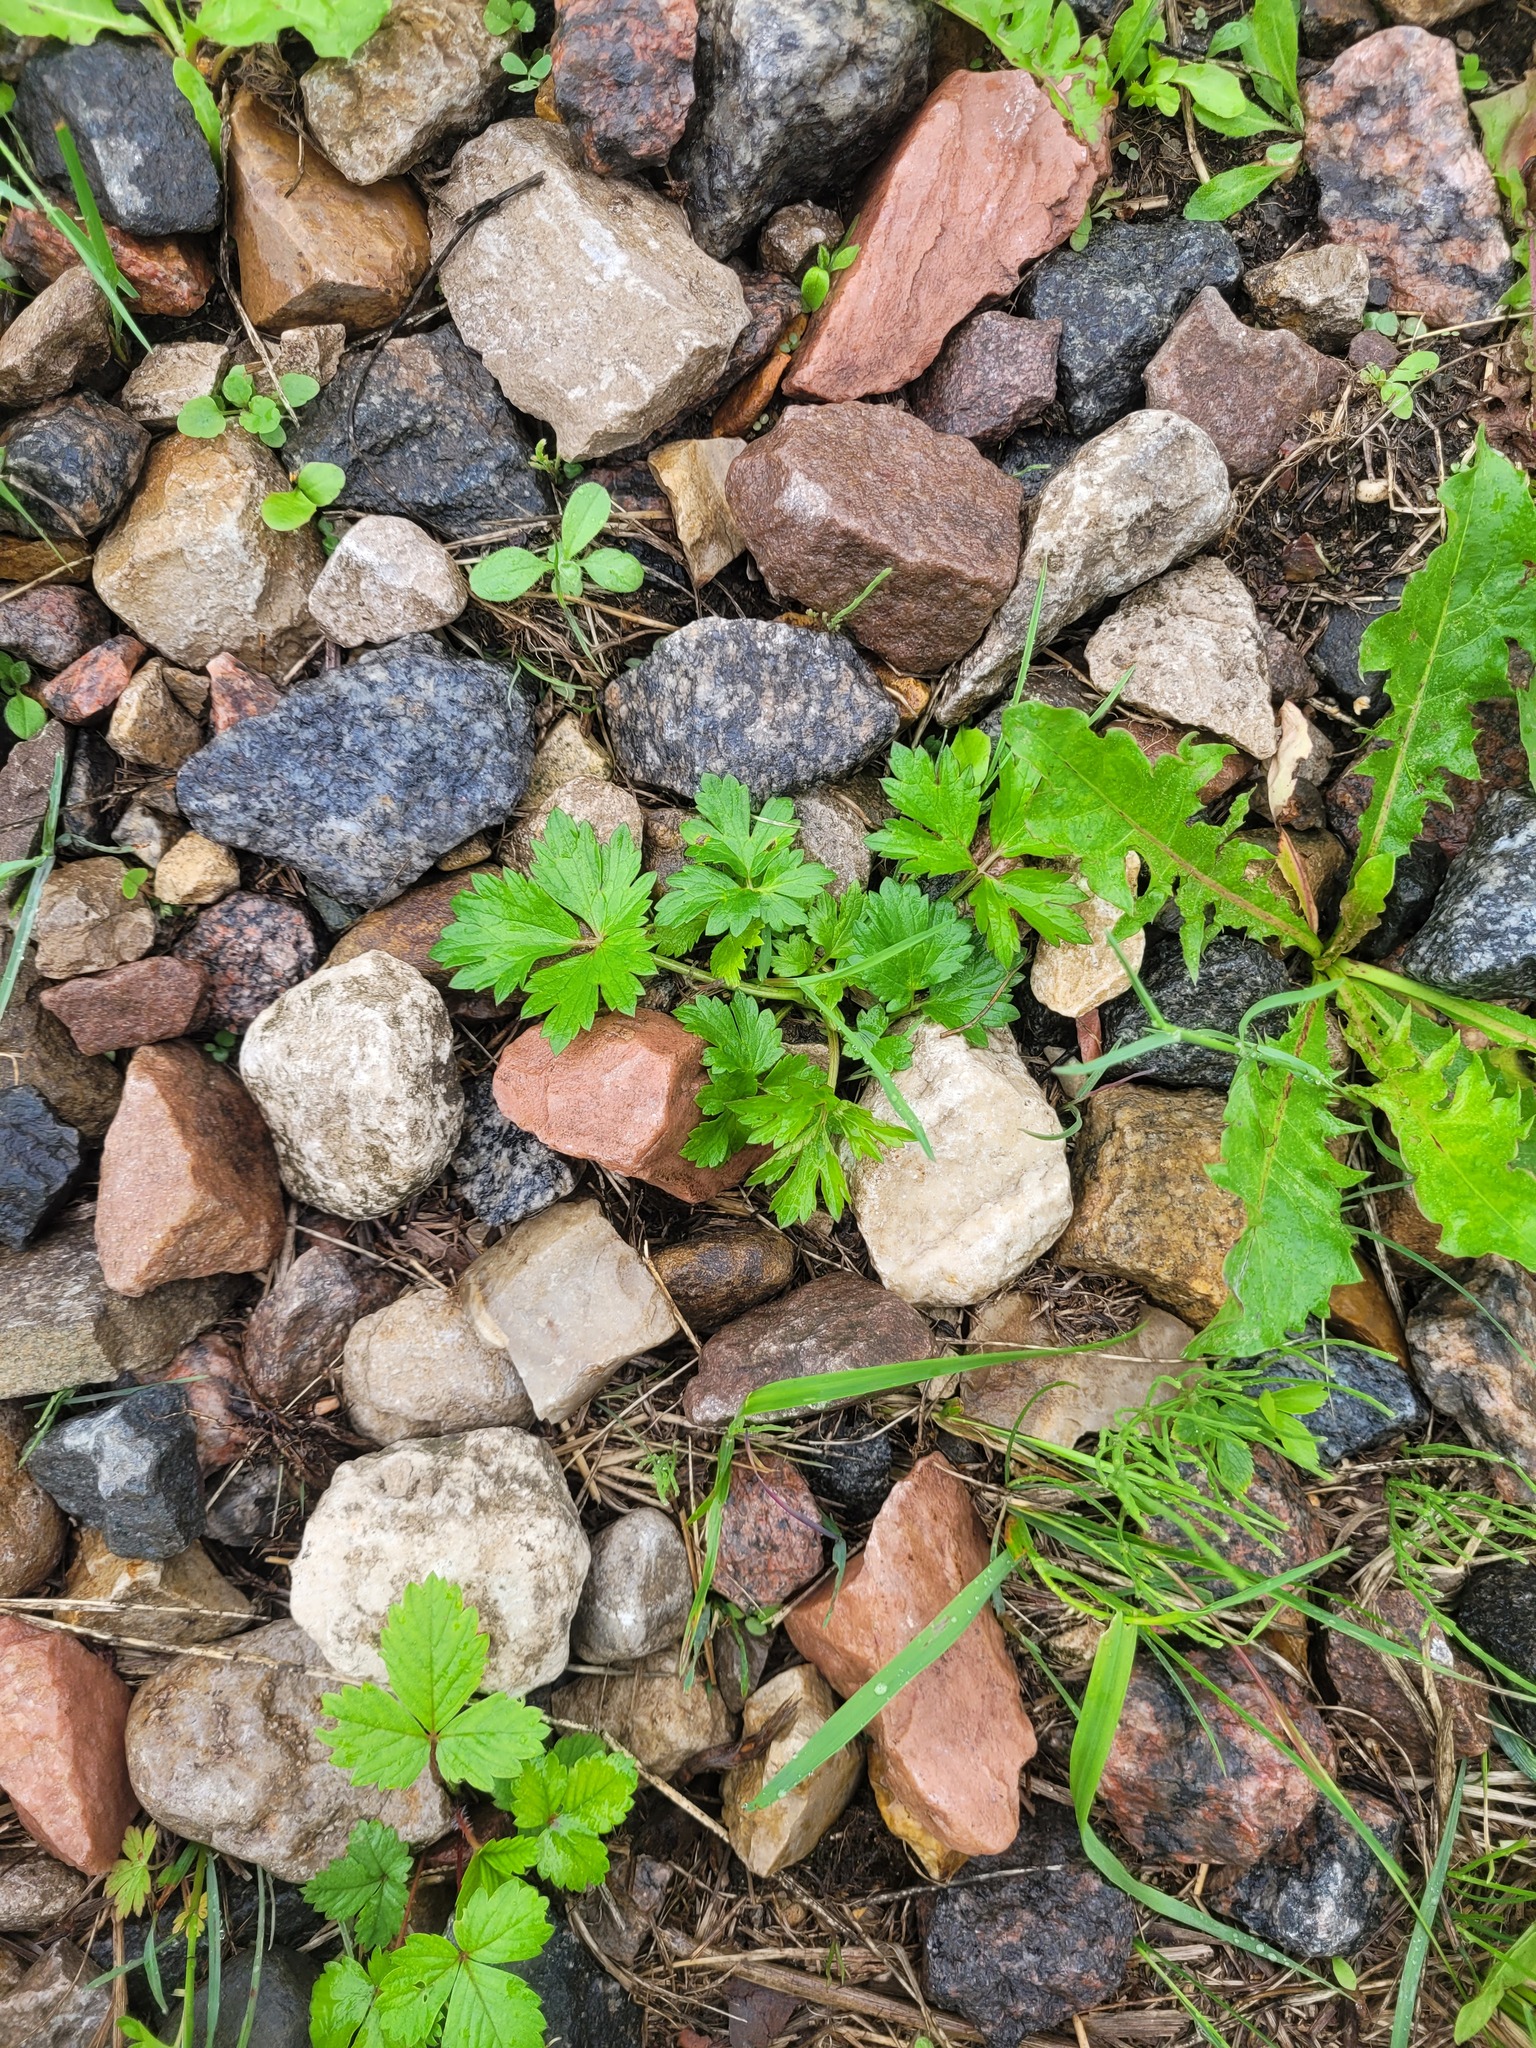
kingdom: Plantae
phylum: Tracheophyta
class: Magnoliopsida
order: Ranunculales
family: Ranunculaceae
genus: Ranunculus
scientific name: Ranunculus repens
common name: Creeping buttercup
